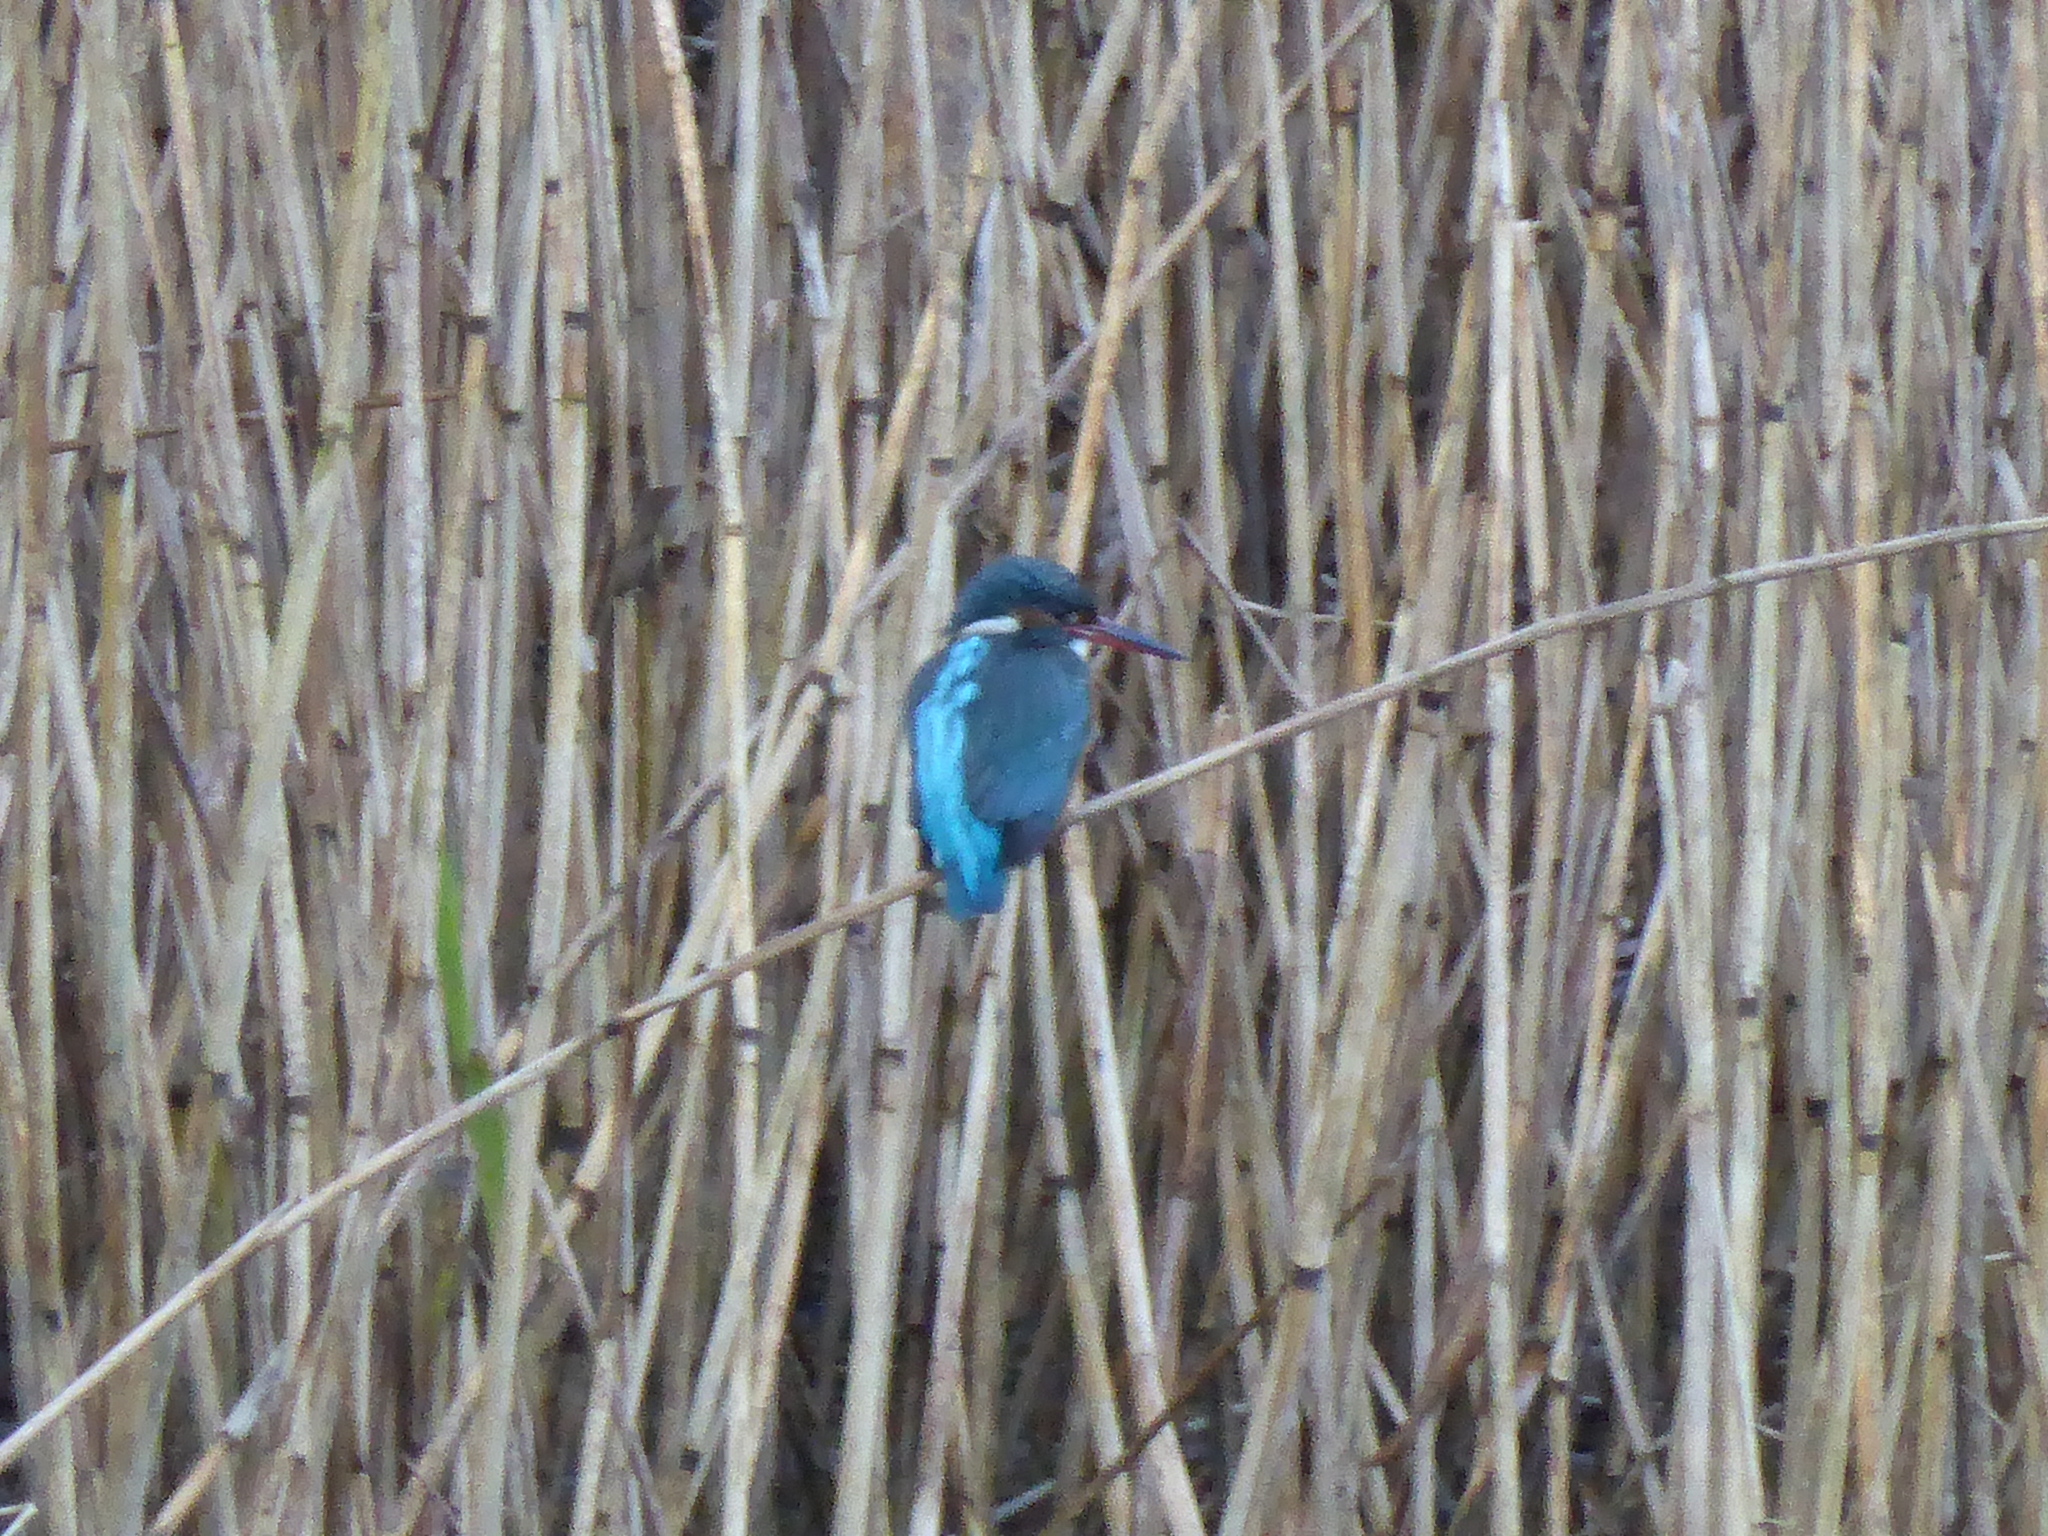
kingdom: Animalia
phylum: Chordata
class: Aves
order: Coraciiformes
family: Alcedinidae
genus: Alcedo
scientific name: Alcedo atthis
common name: Common kingfisher
